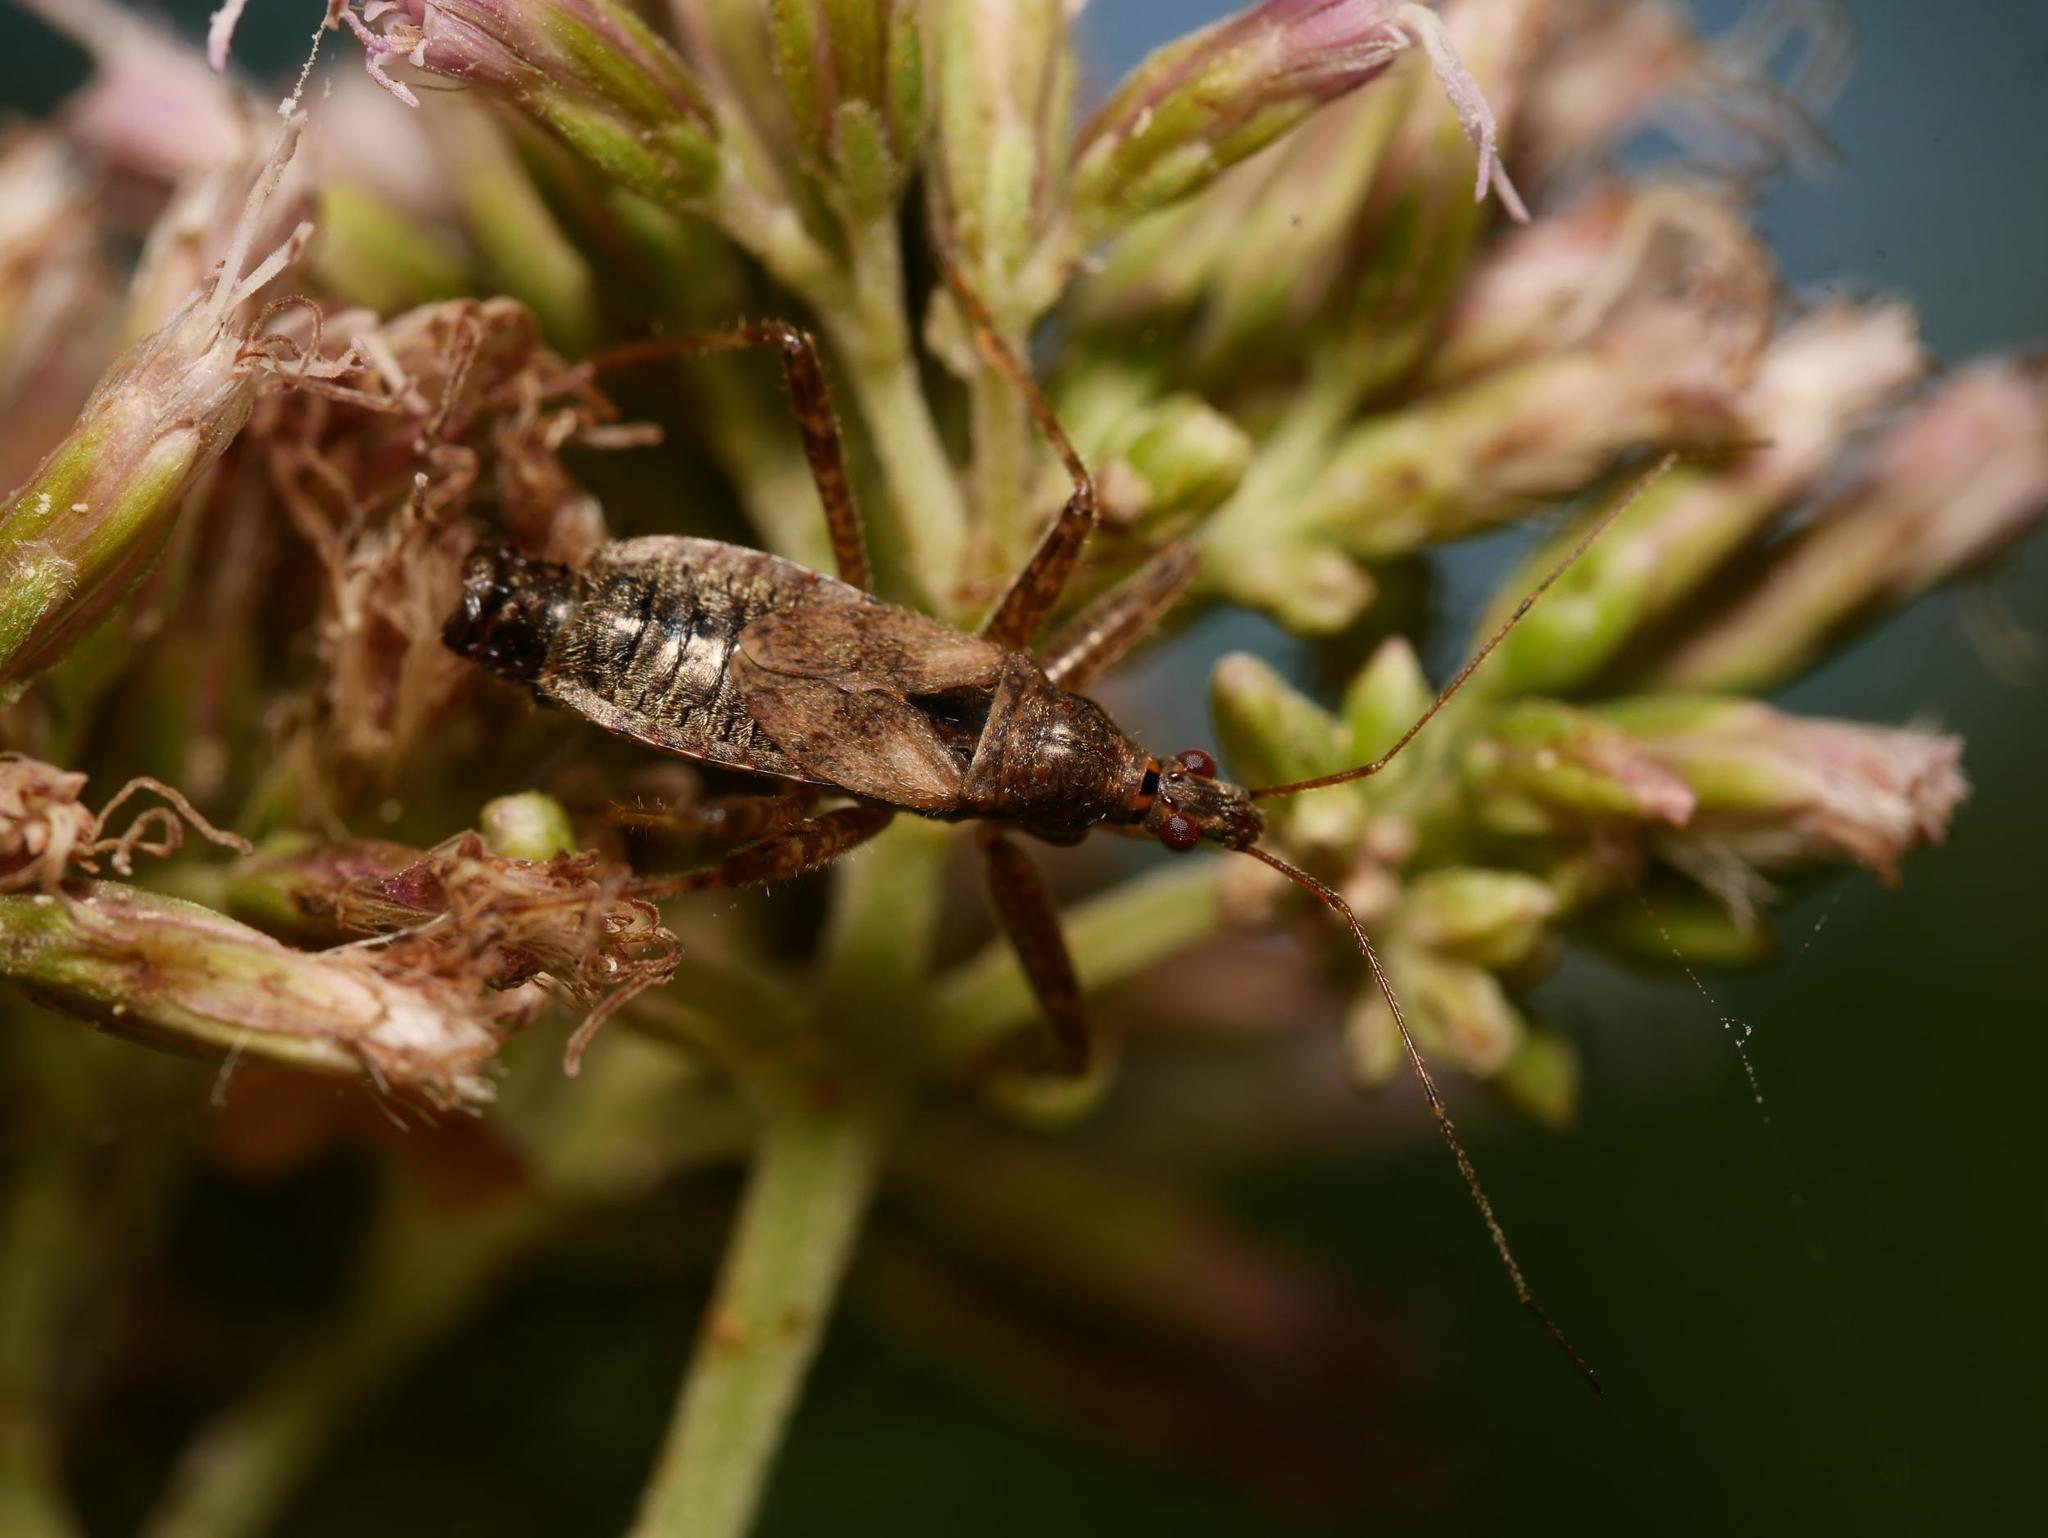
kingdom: Animalia
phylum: Arthropoda
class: Insecta
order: Hemiptera
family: Nabidae
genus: Himacerus
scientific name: Himacerus apterus
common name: Tree damsel bug
